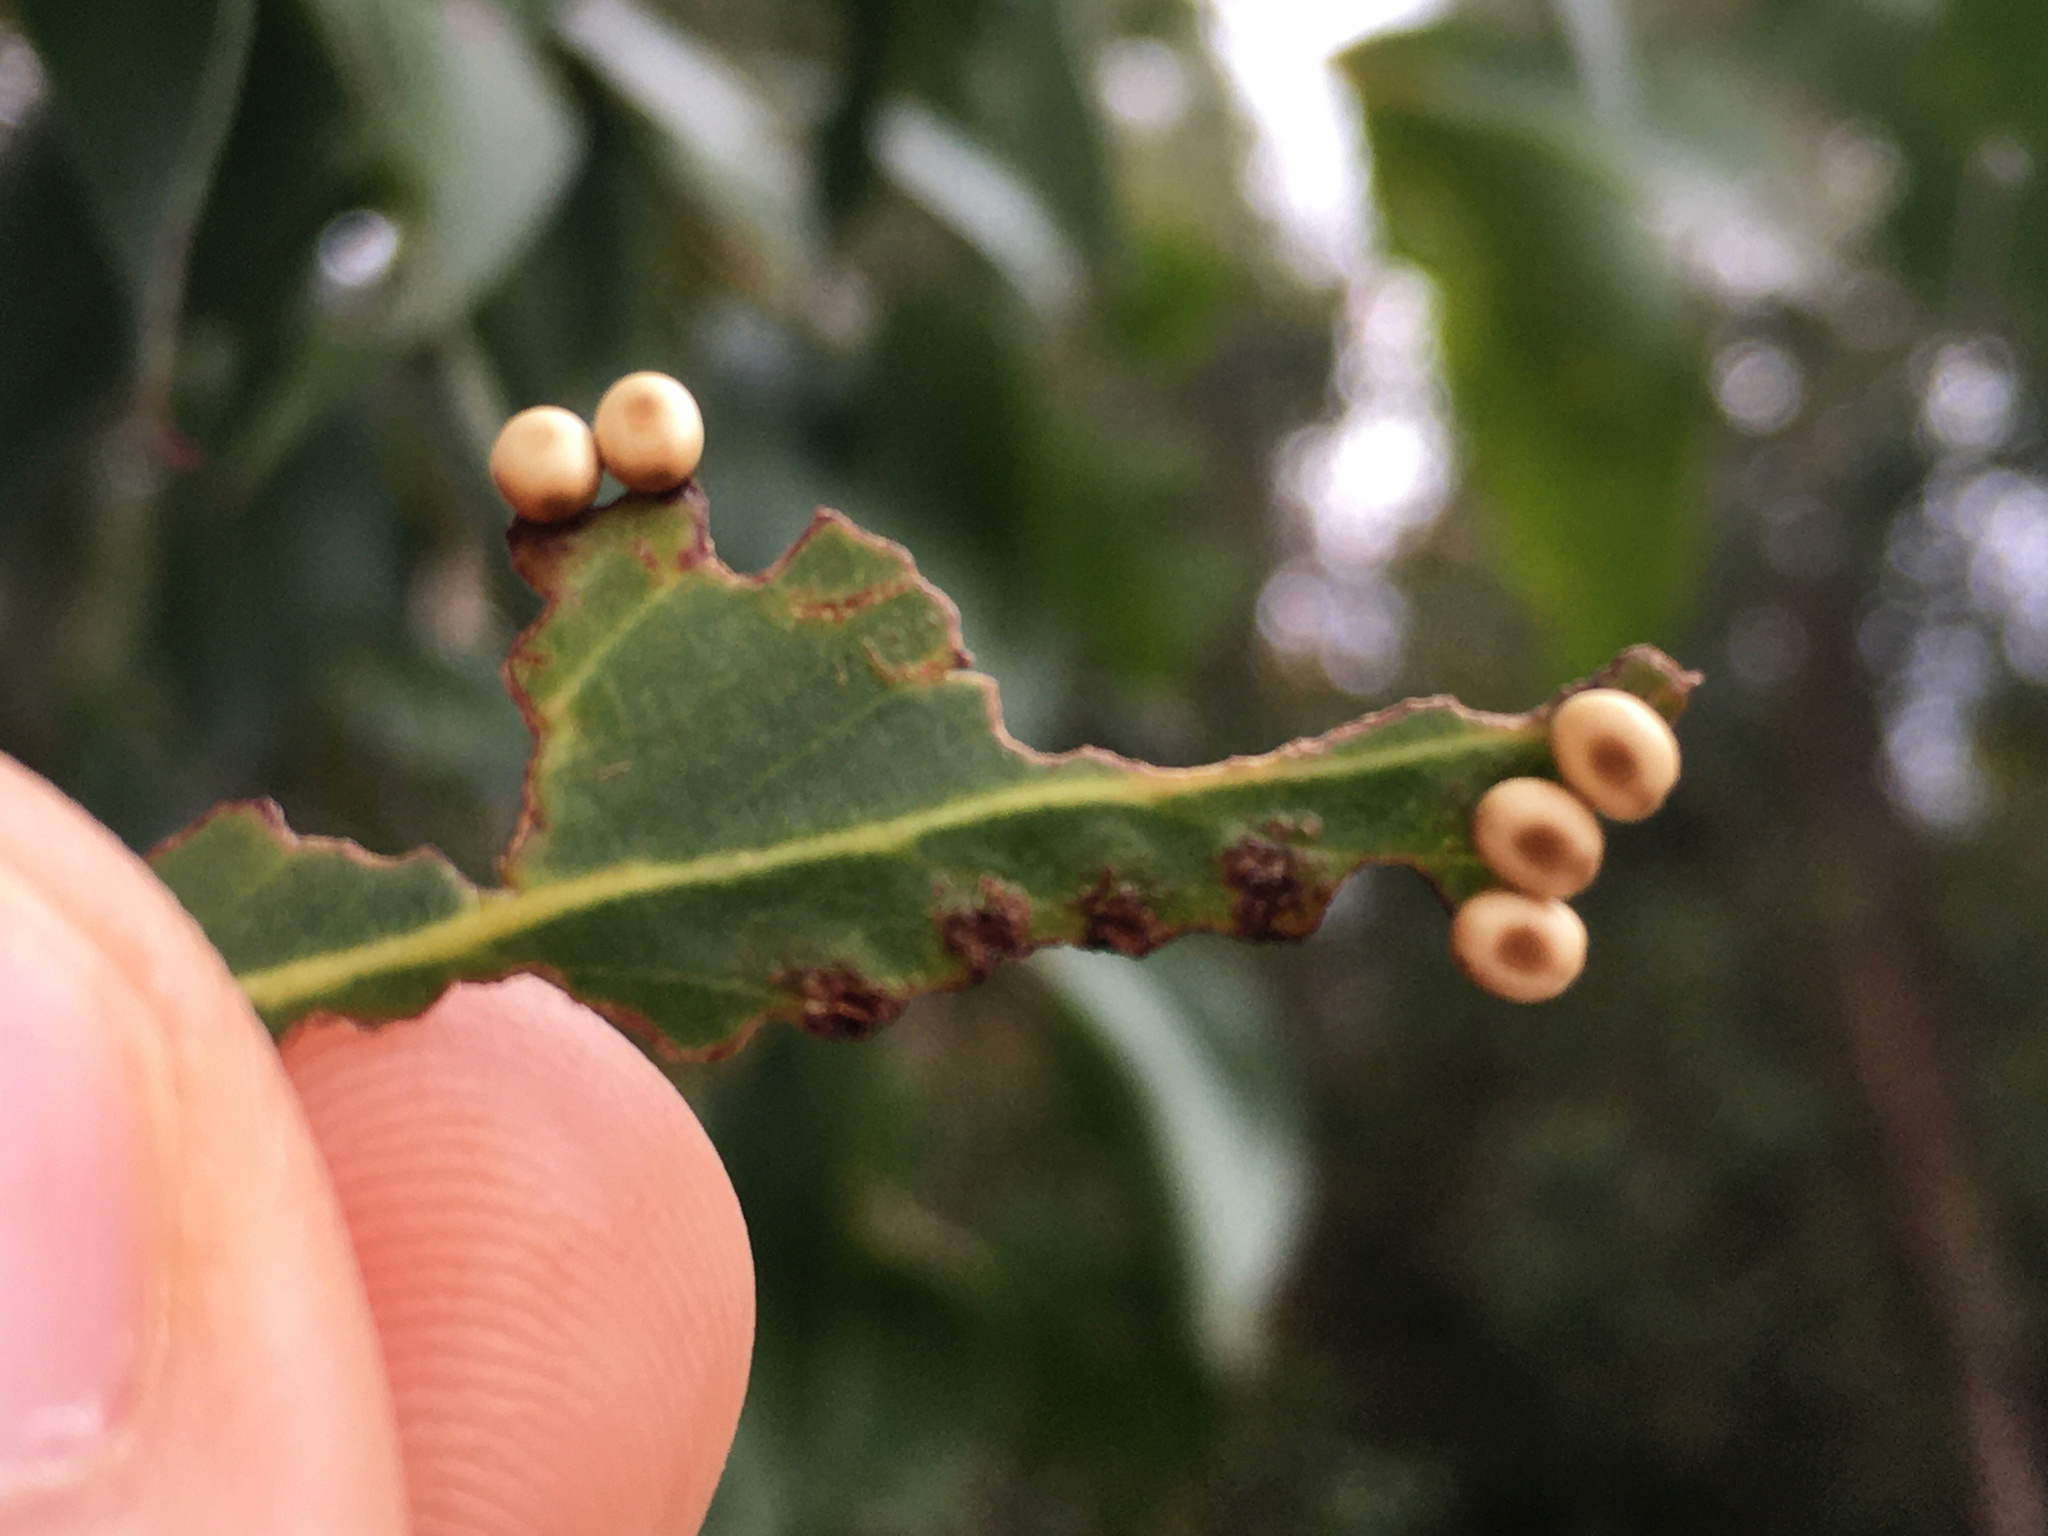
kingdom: Animalia
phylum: Arthropoda
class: Insecta
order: Lepidoptera
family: Saturniidae
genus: Opodiphthera
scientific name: Opodiphthera
